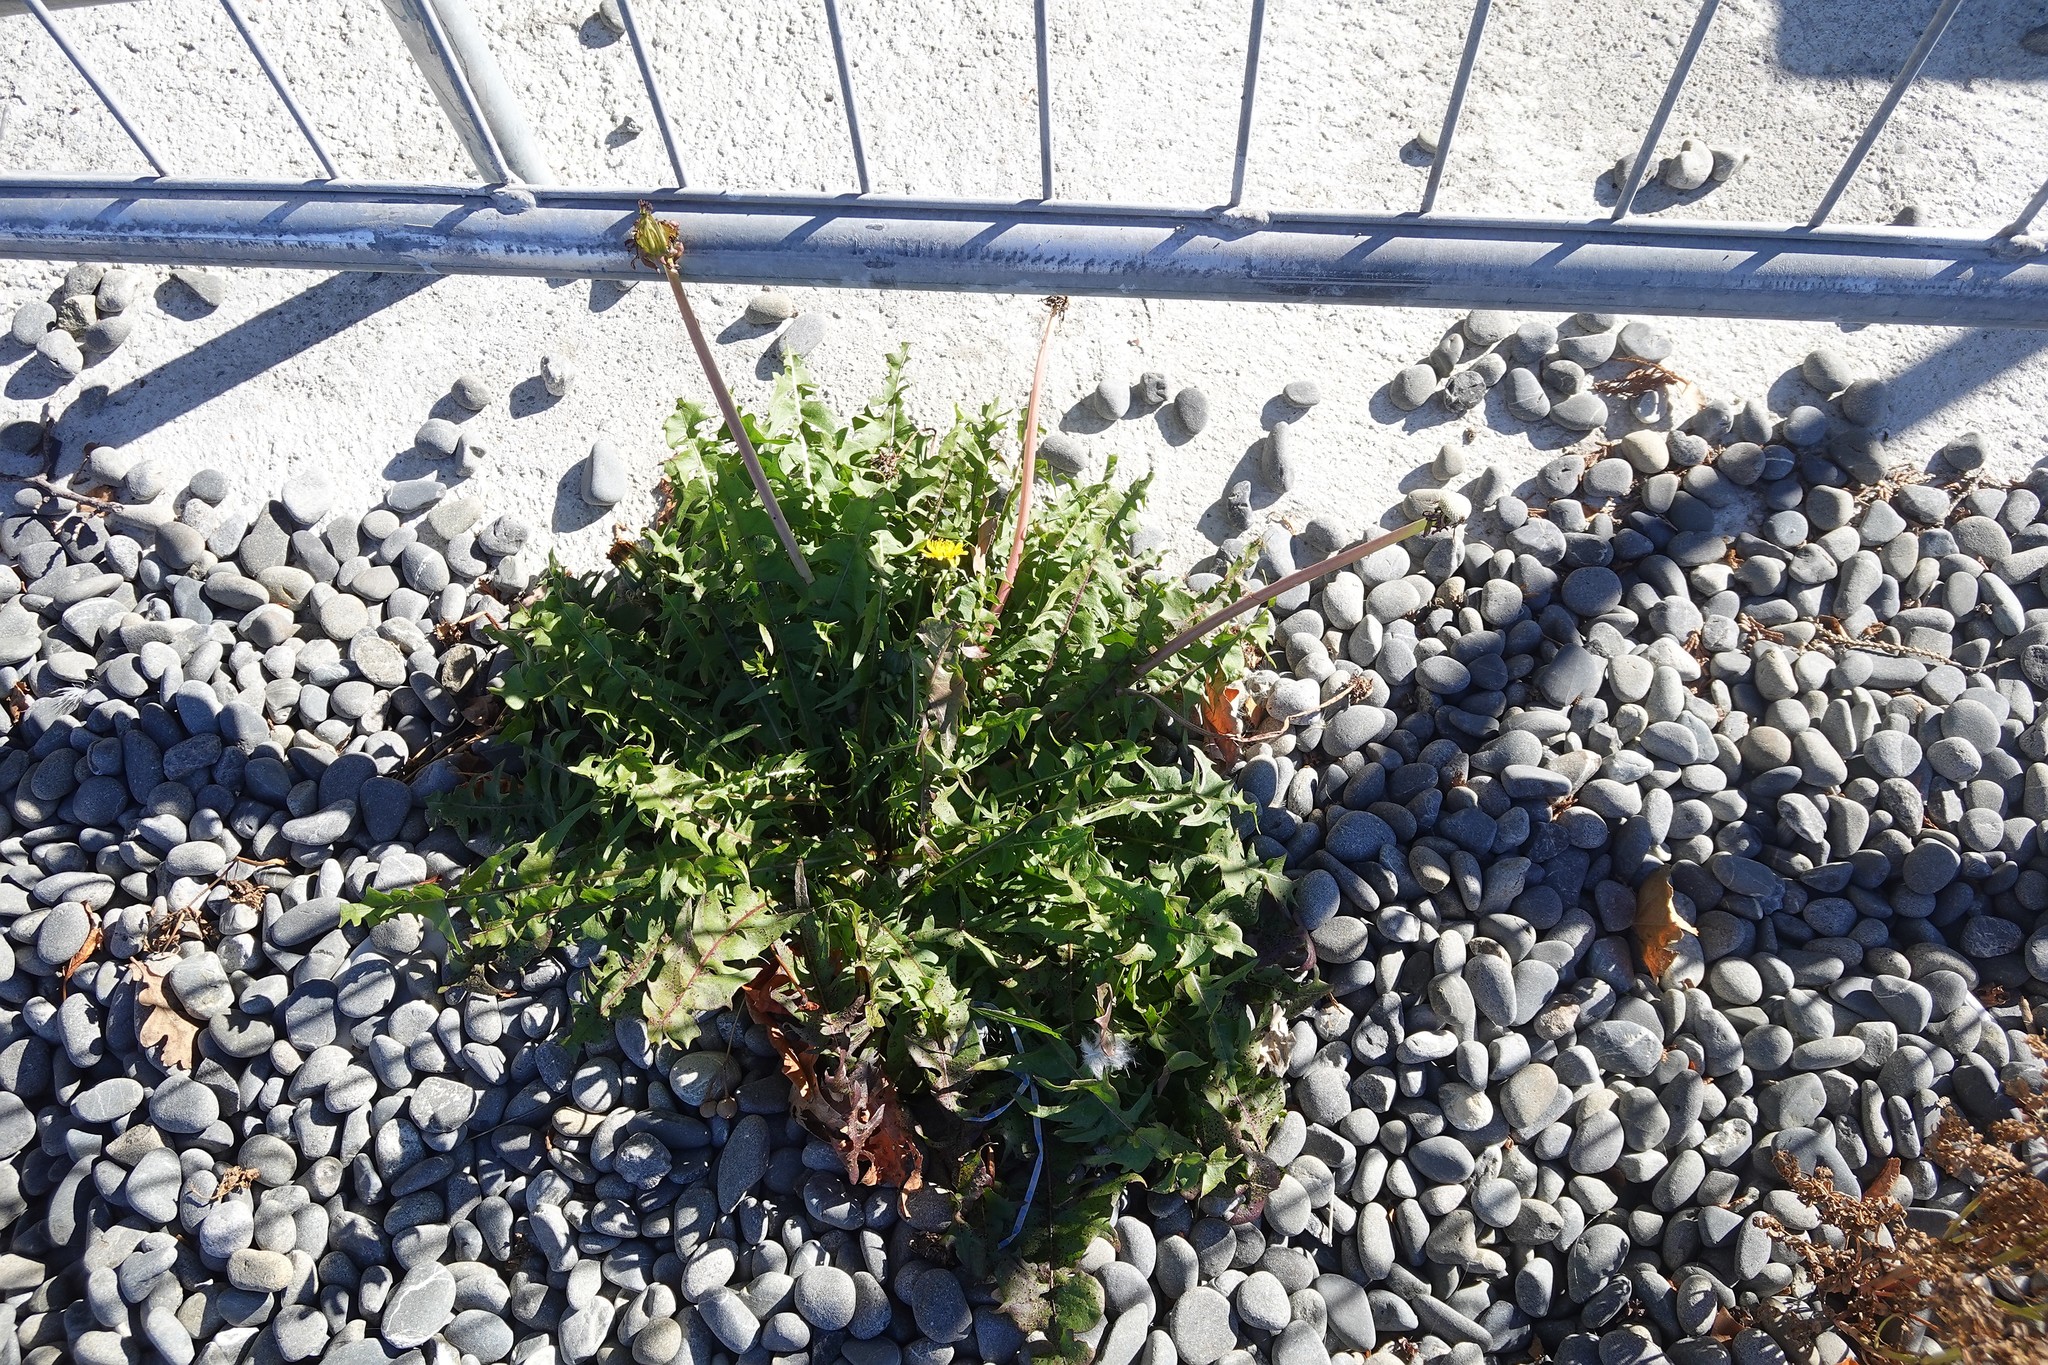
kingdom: Plantae
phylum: Tracheophyta
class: Magnoliopsida
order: Asterales
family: Asteraceae
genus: Taraxacum
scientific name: Taraxacum officinale
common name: Common dandelion
